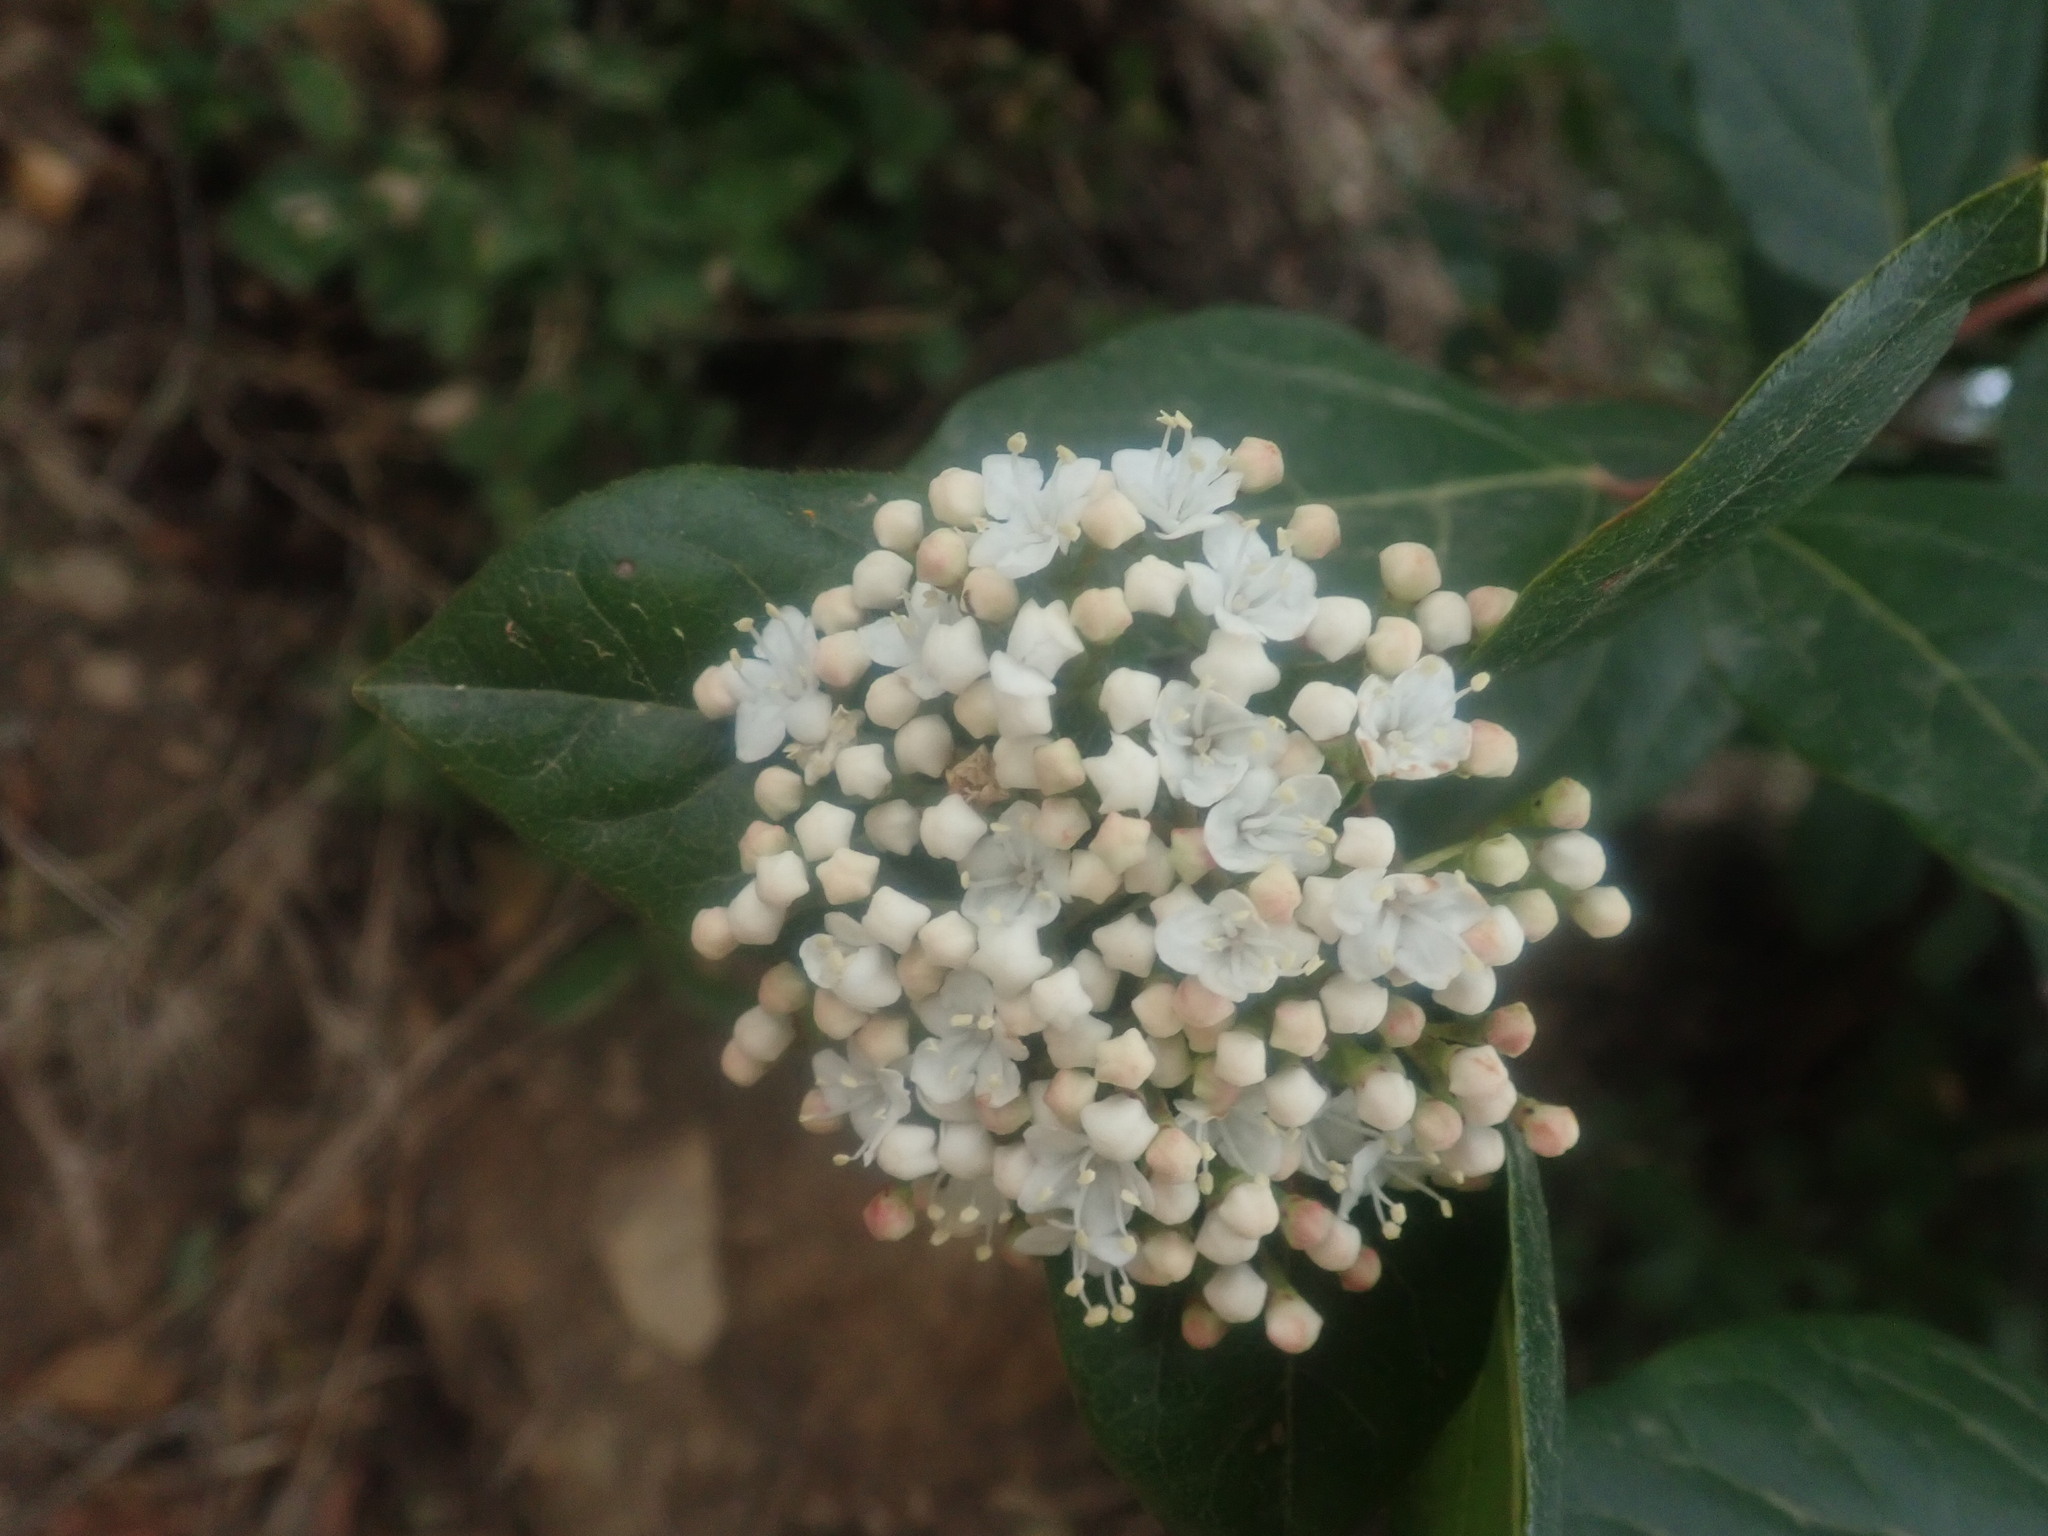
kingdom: Plantae
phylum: Tracheophyta
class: Magnoliopsida
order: Dipsacales
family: Viburnaceae
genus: Viburnum
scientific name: Viburnum tinus
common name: Laurustinus
